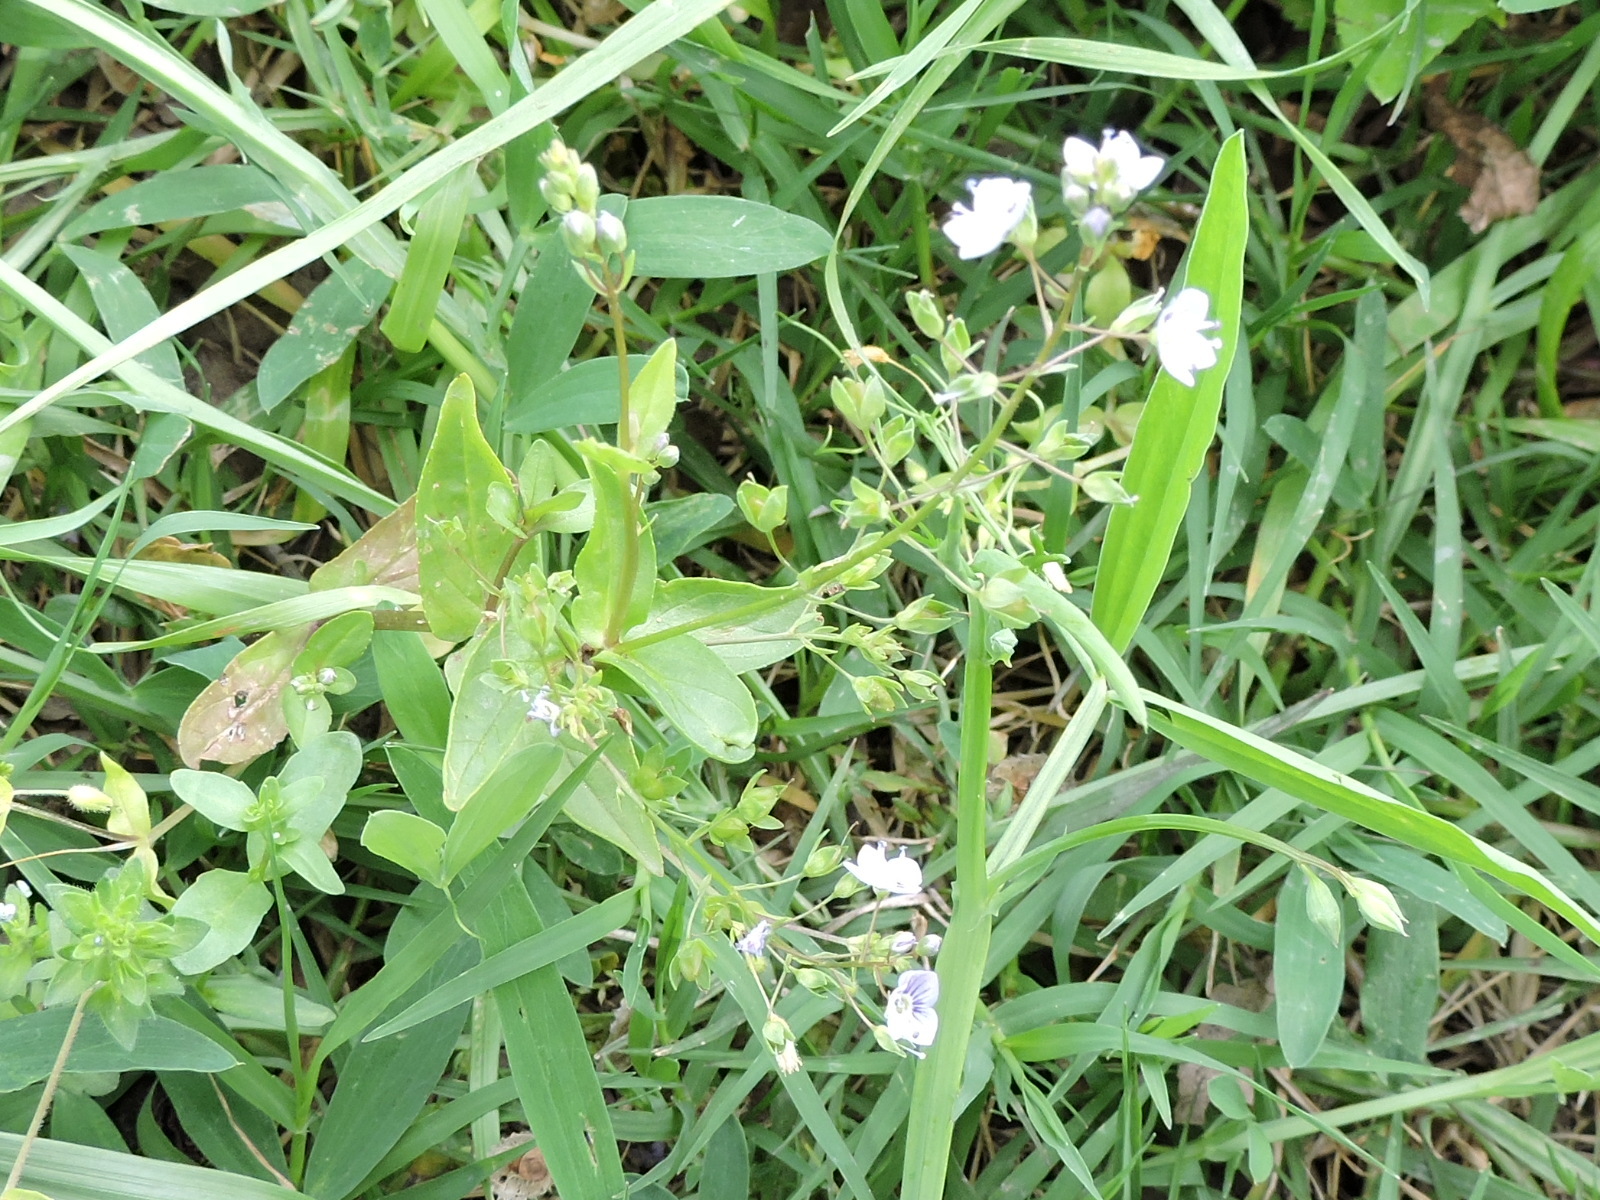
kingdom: Plantae
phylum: Tracheophyta
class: Magnoliopsida
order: Lamiales
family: Plantaginaceae
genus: Veronica
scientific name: Veronica anagallis-aquatica
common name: Water speedwell
